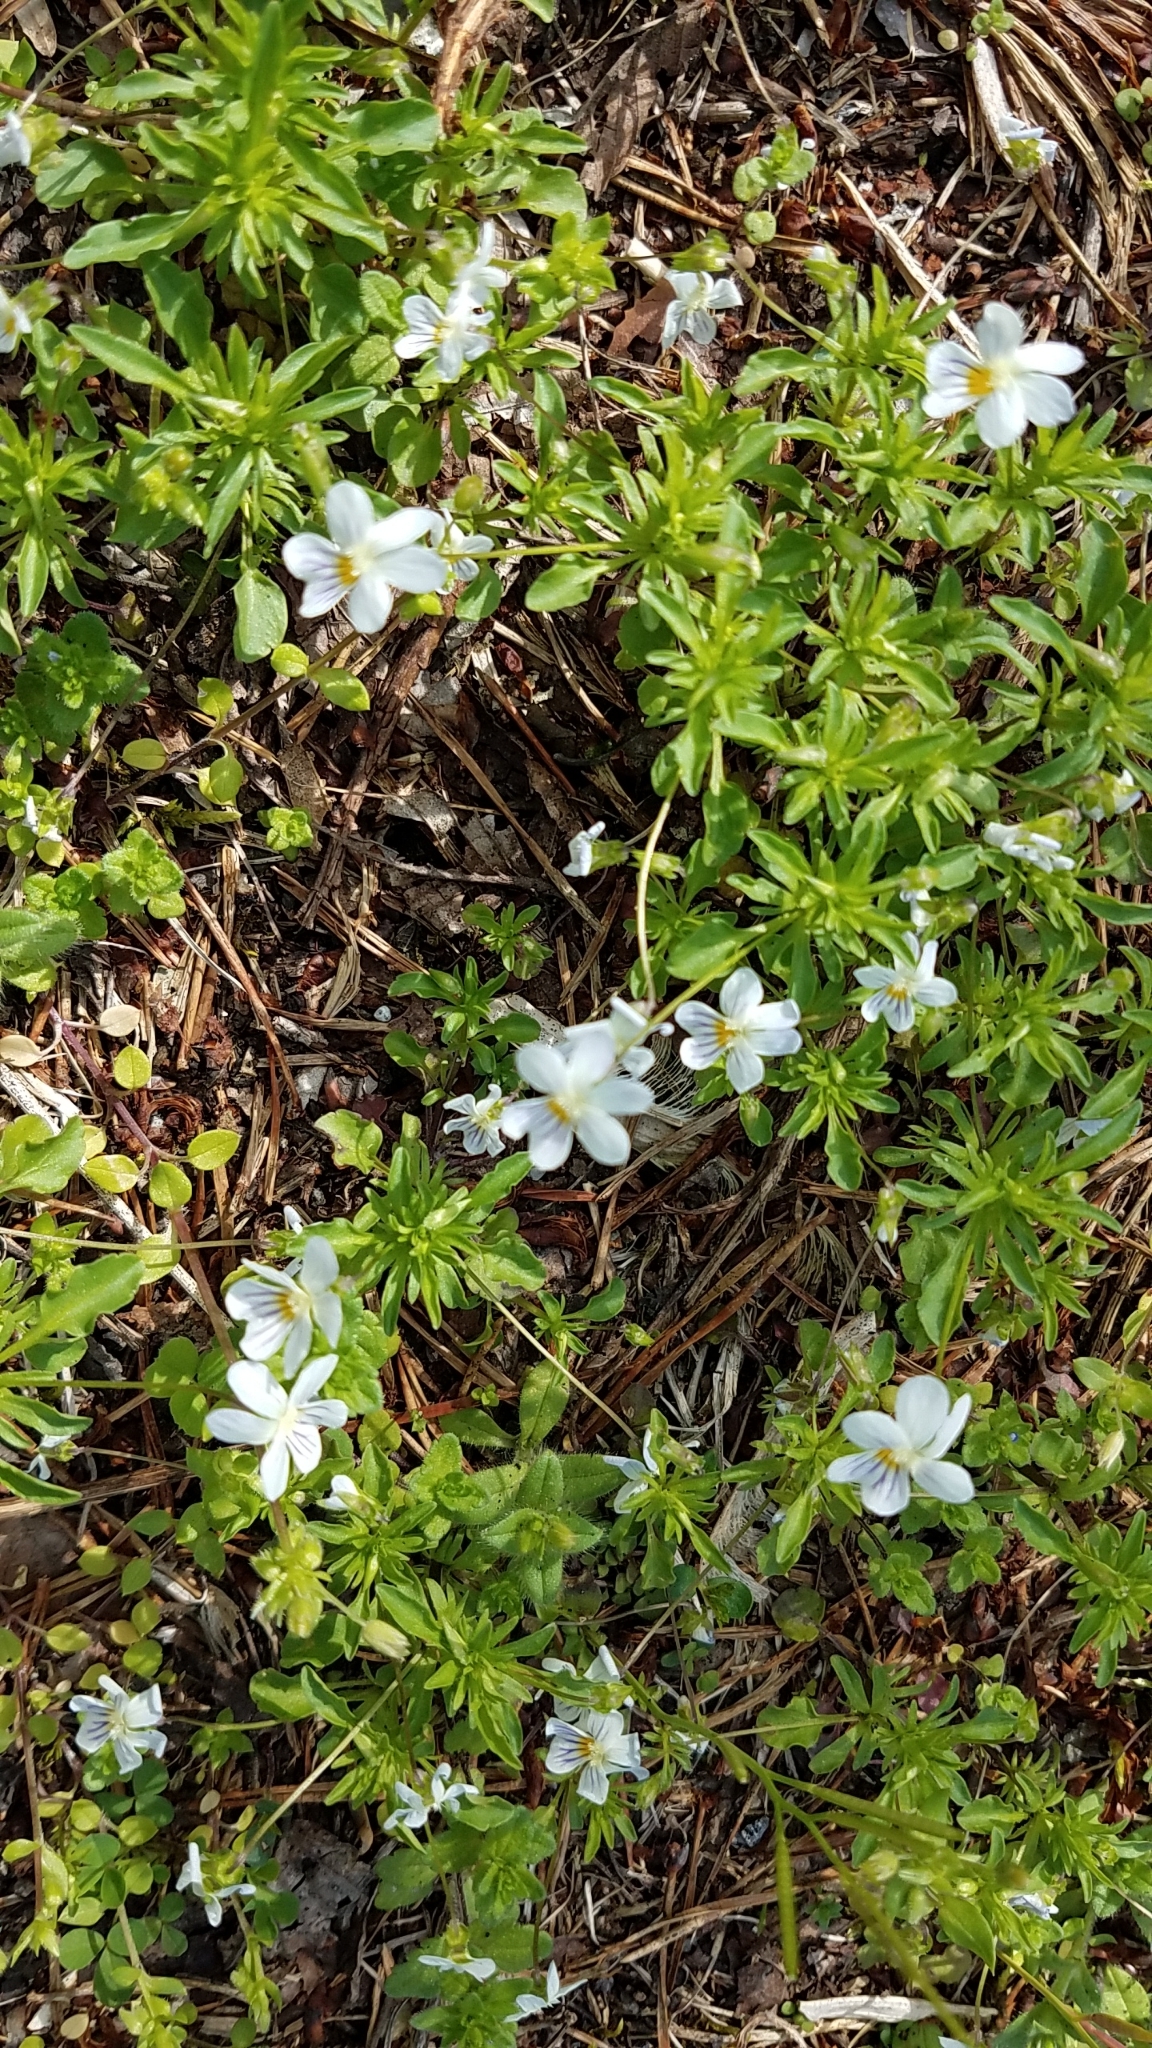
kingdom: Plantae
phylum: Tracheophyta
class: Magnoliopsida
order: Malpighiales
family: Violaceae
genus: Viola
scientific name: Viola rafinesquei
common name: American field pansy
